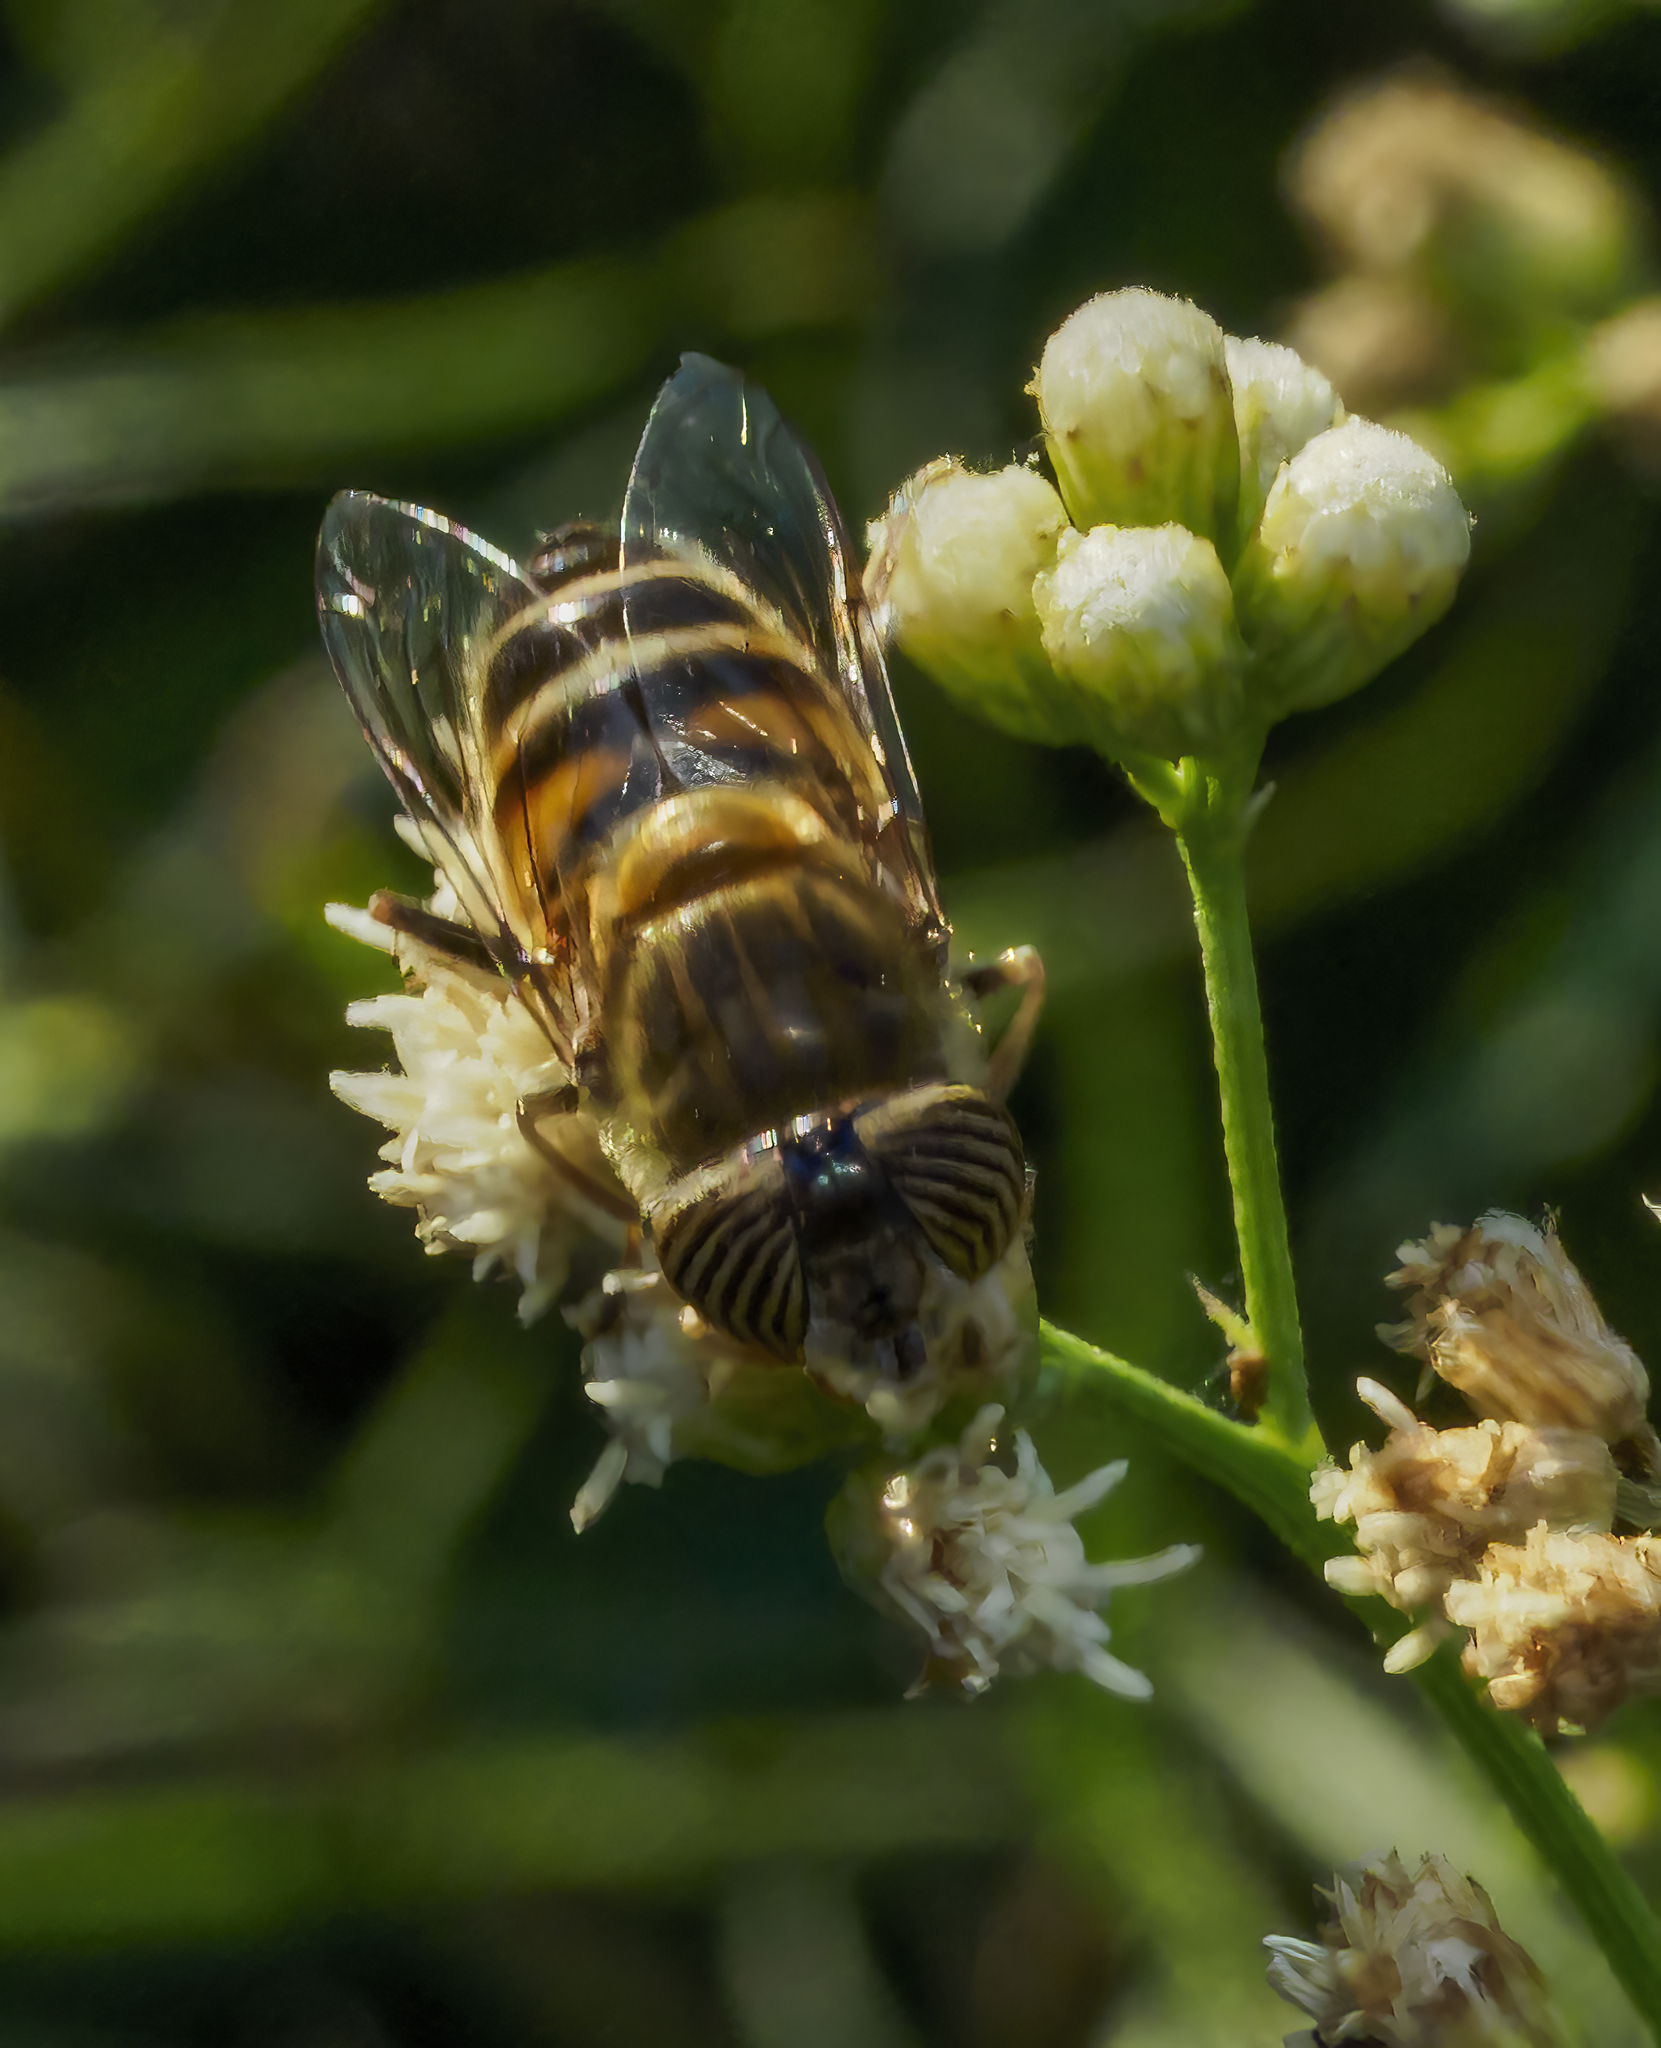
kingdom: Animalia
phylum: Arthropoda
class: Insecta
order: Diptera
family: Syrphidae
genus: Eristalinus
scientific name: Eristalinus taeniops
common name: Syrphid fly
